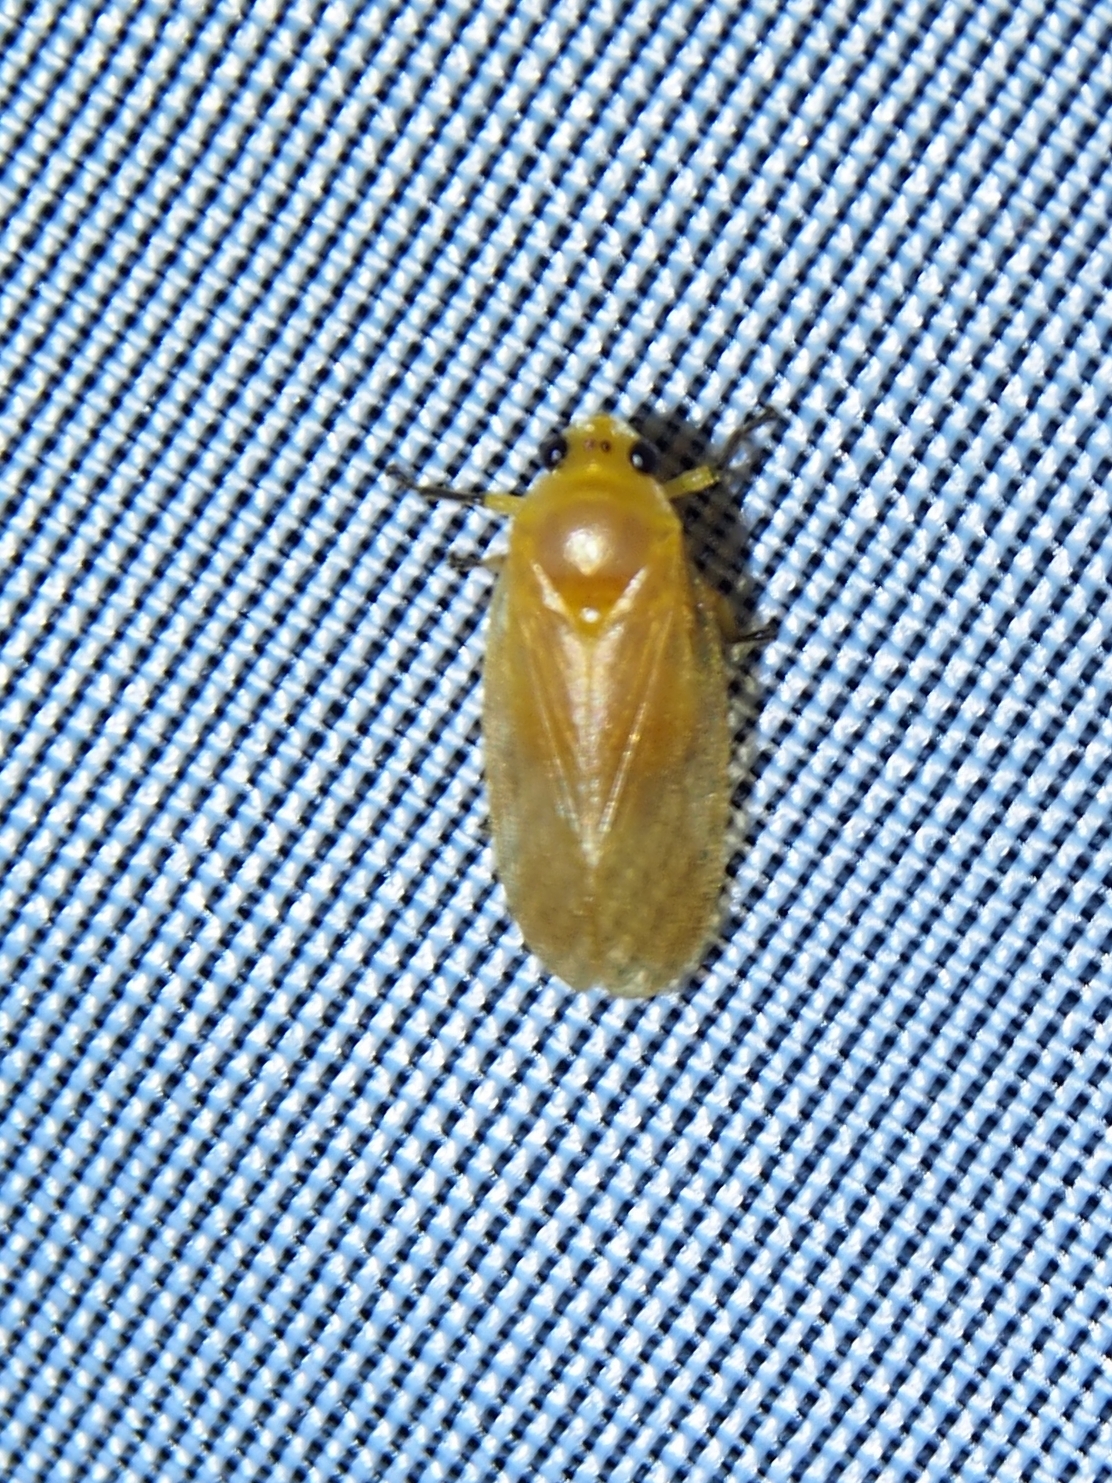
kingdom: Animalia
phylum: Arthropoda
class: Insecta
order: Hemiptera
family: Cercopidae
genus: Catrimania
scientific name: Catrimania livida
